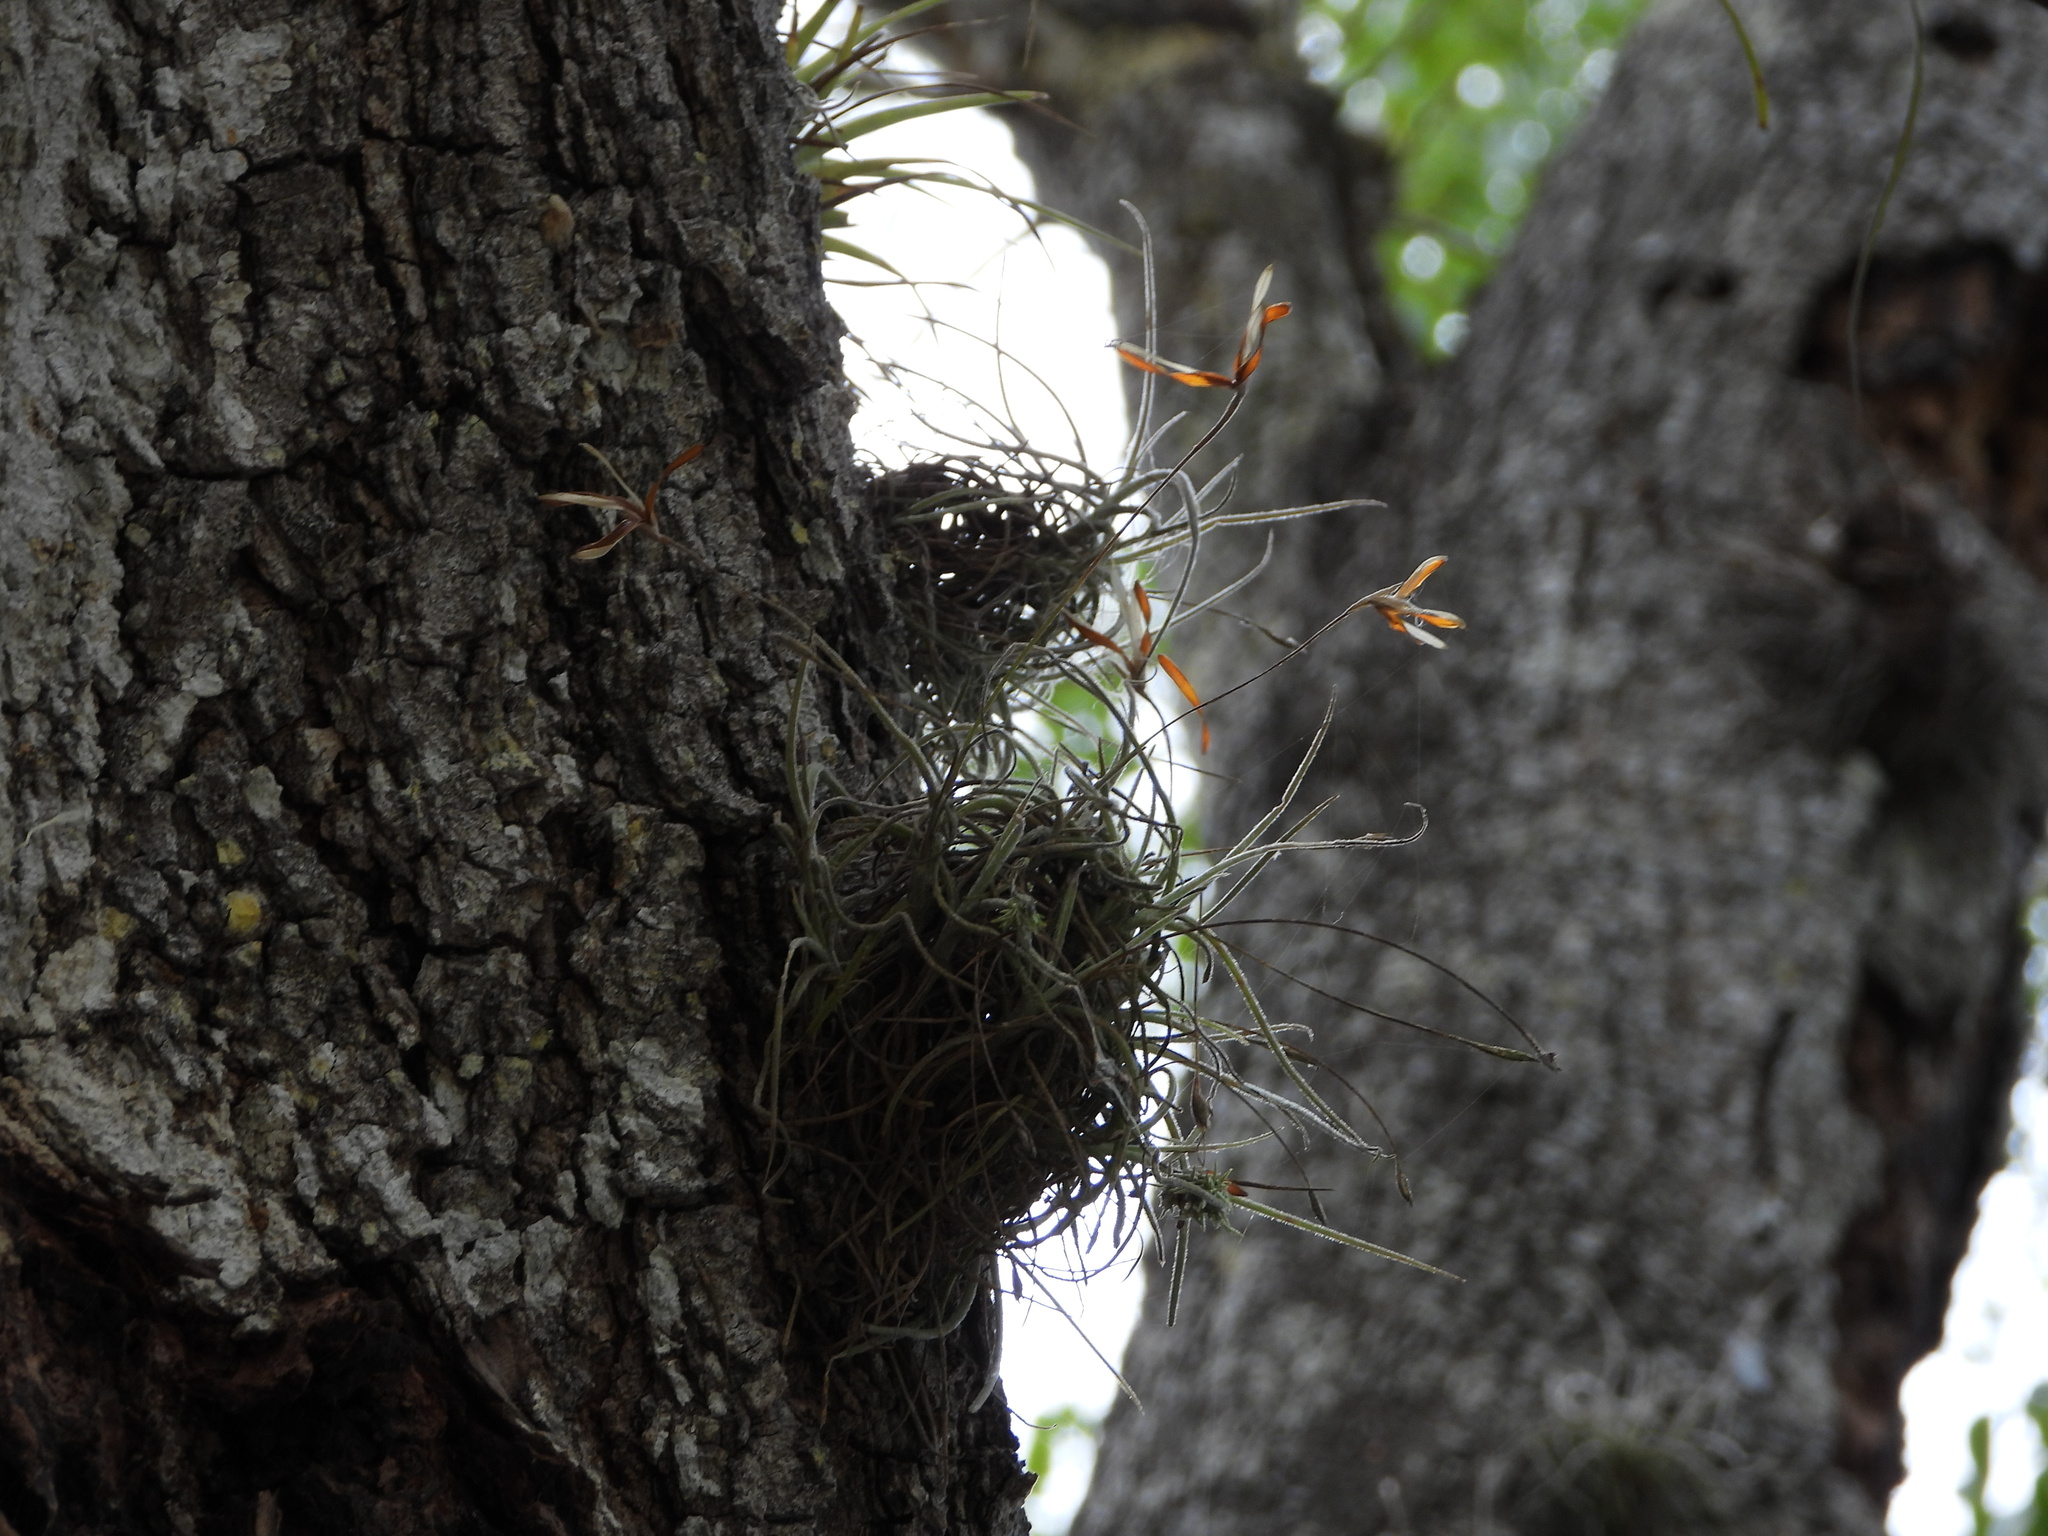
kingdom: Plantae
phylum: Tracheophyta
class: Liliopsida
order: Poales
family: Bromeliaceae
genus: Tillandsia
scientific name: Tillandsia recurvata
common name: Small ballmoss
